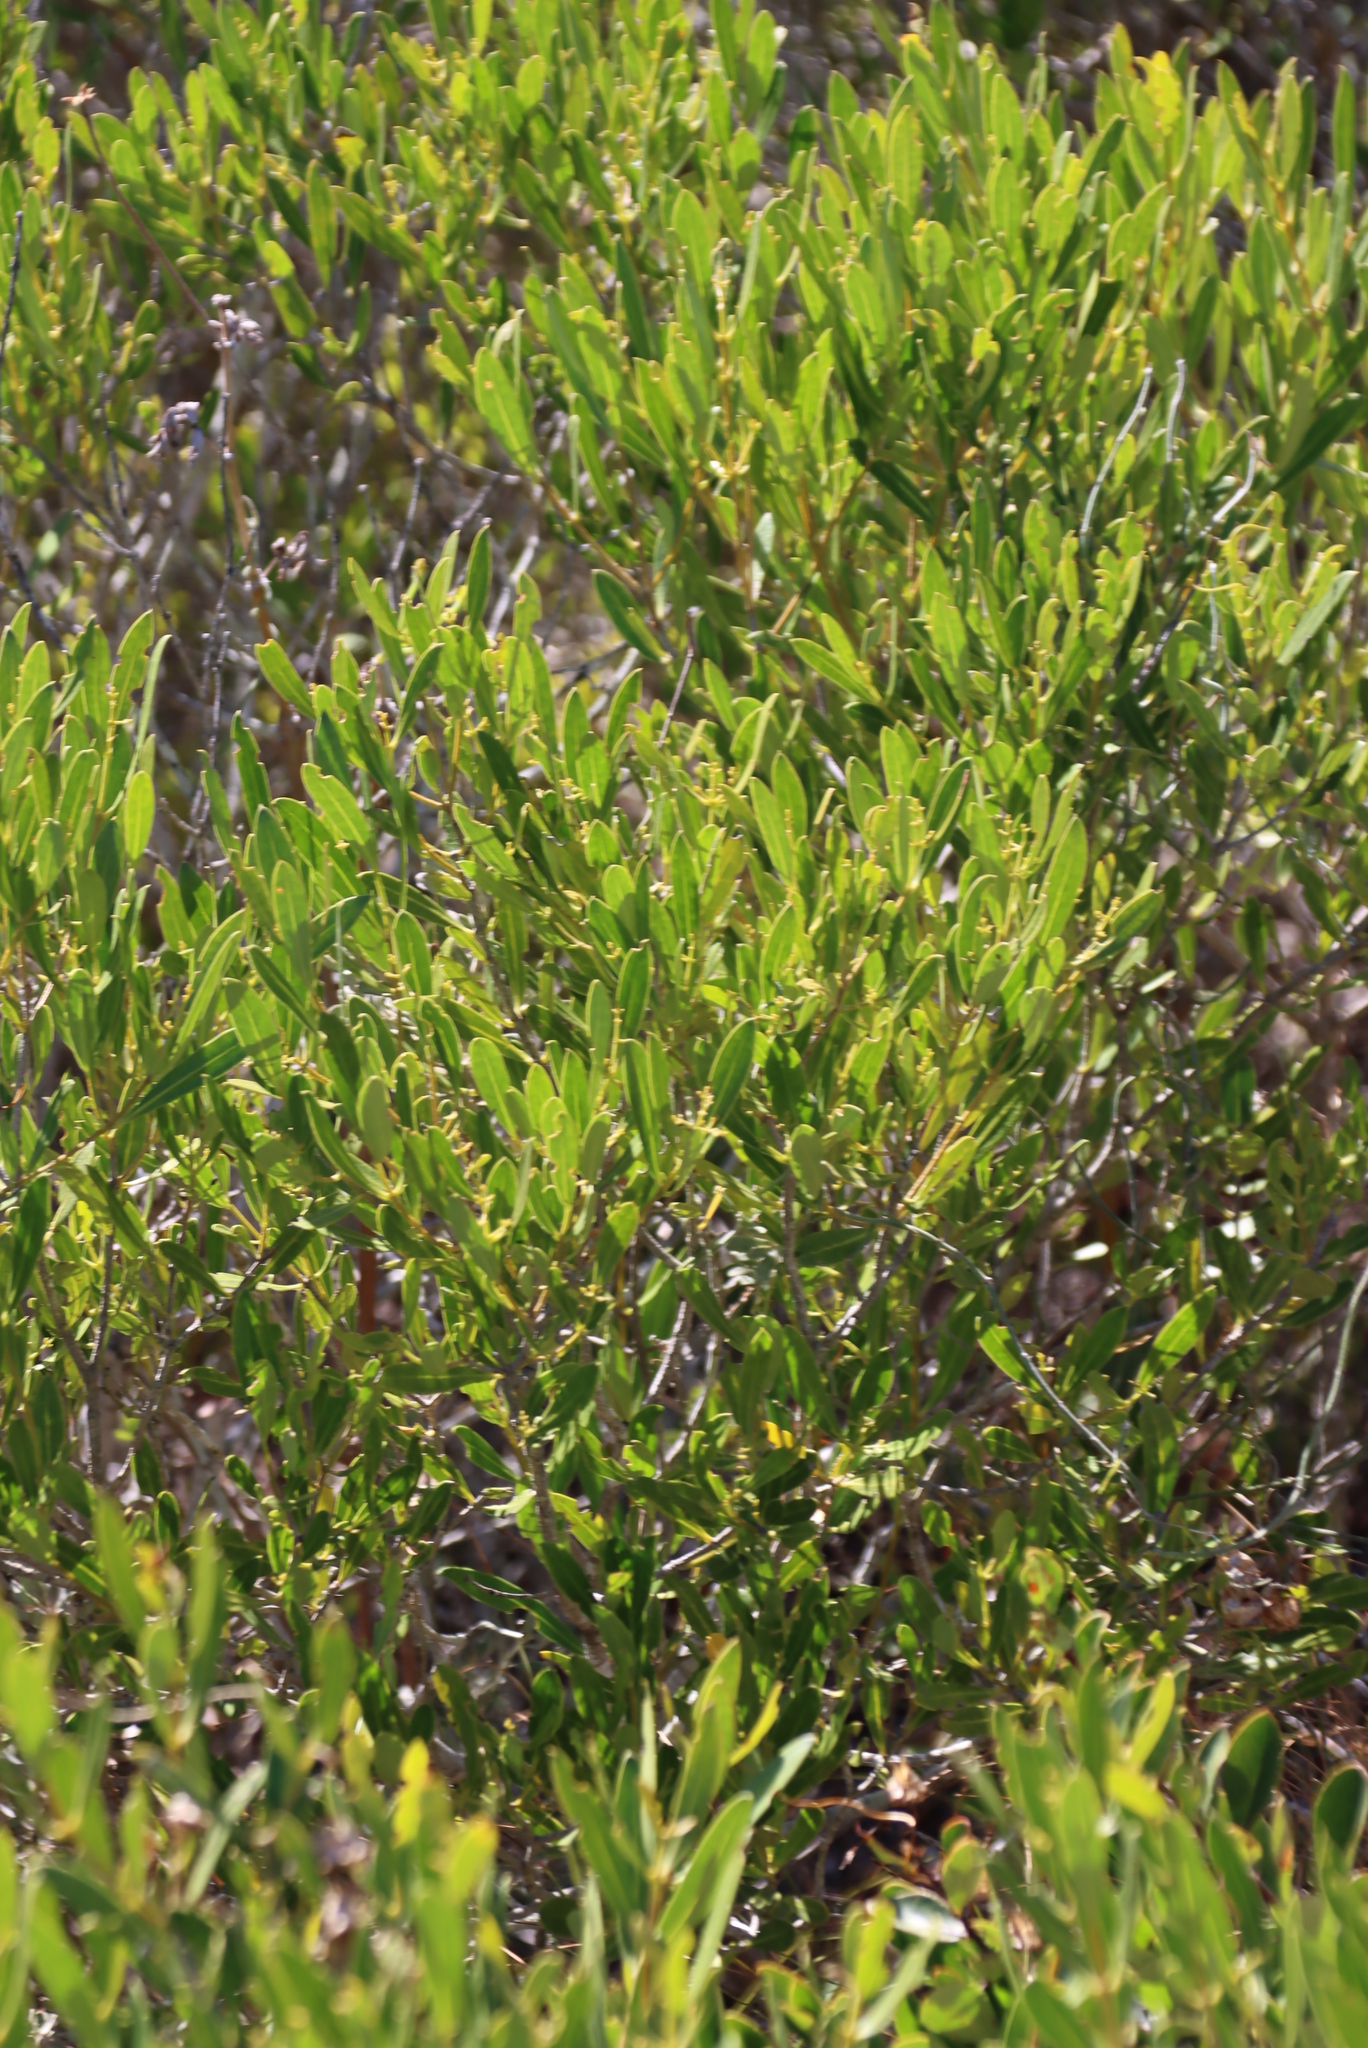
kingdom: Plantae
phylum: Tracheophyta
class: Magnoliopsida
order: Lamiales
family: Oleaceae
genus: Olea
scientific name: Olea exasperata
